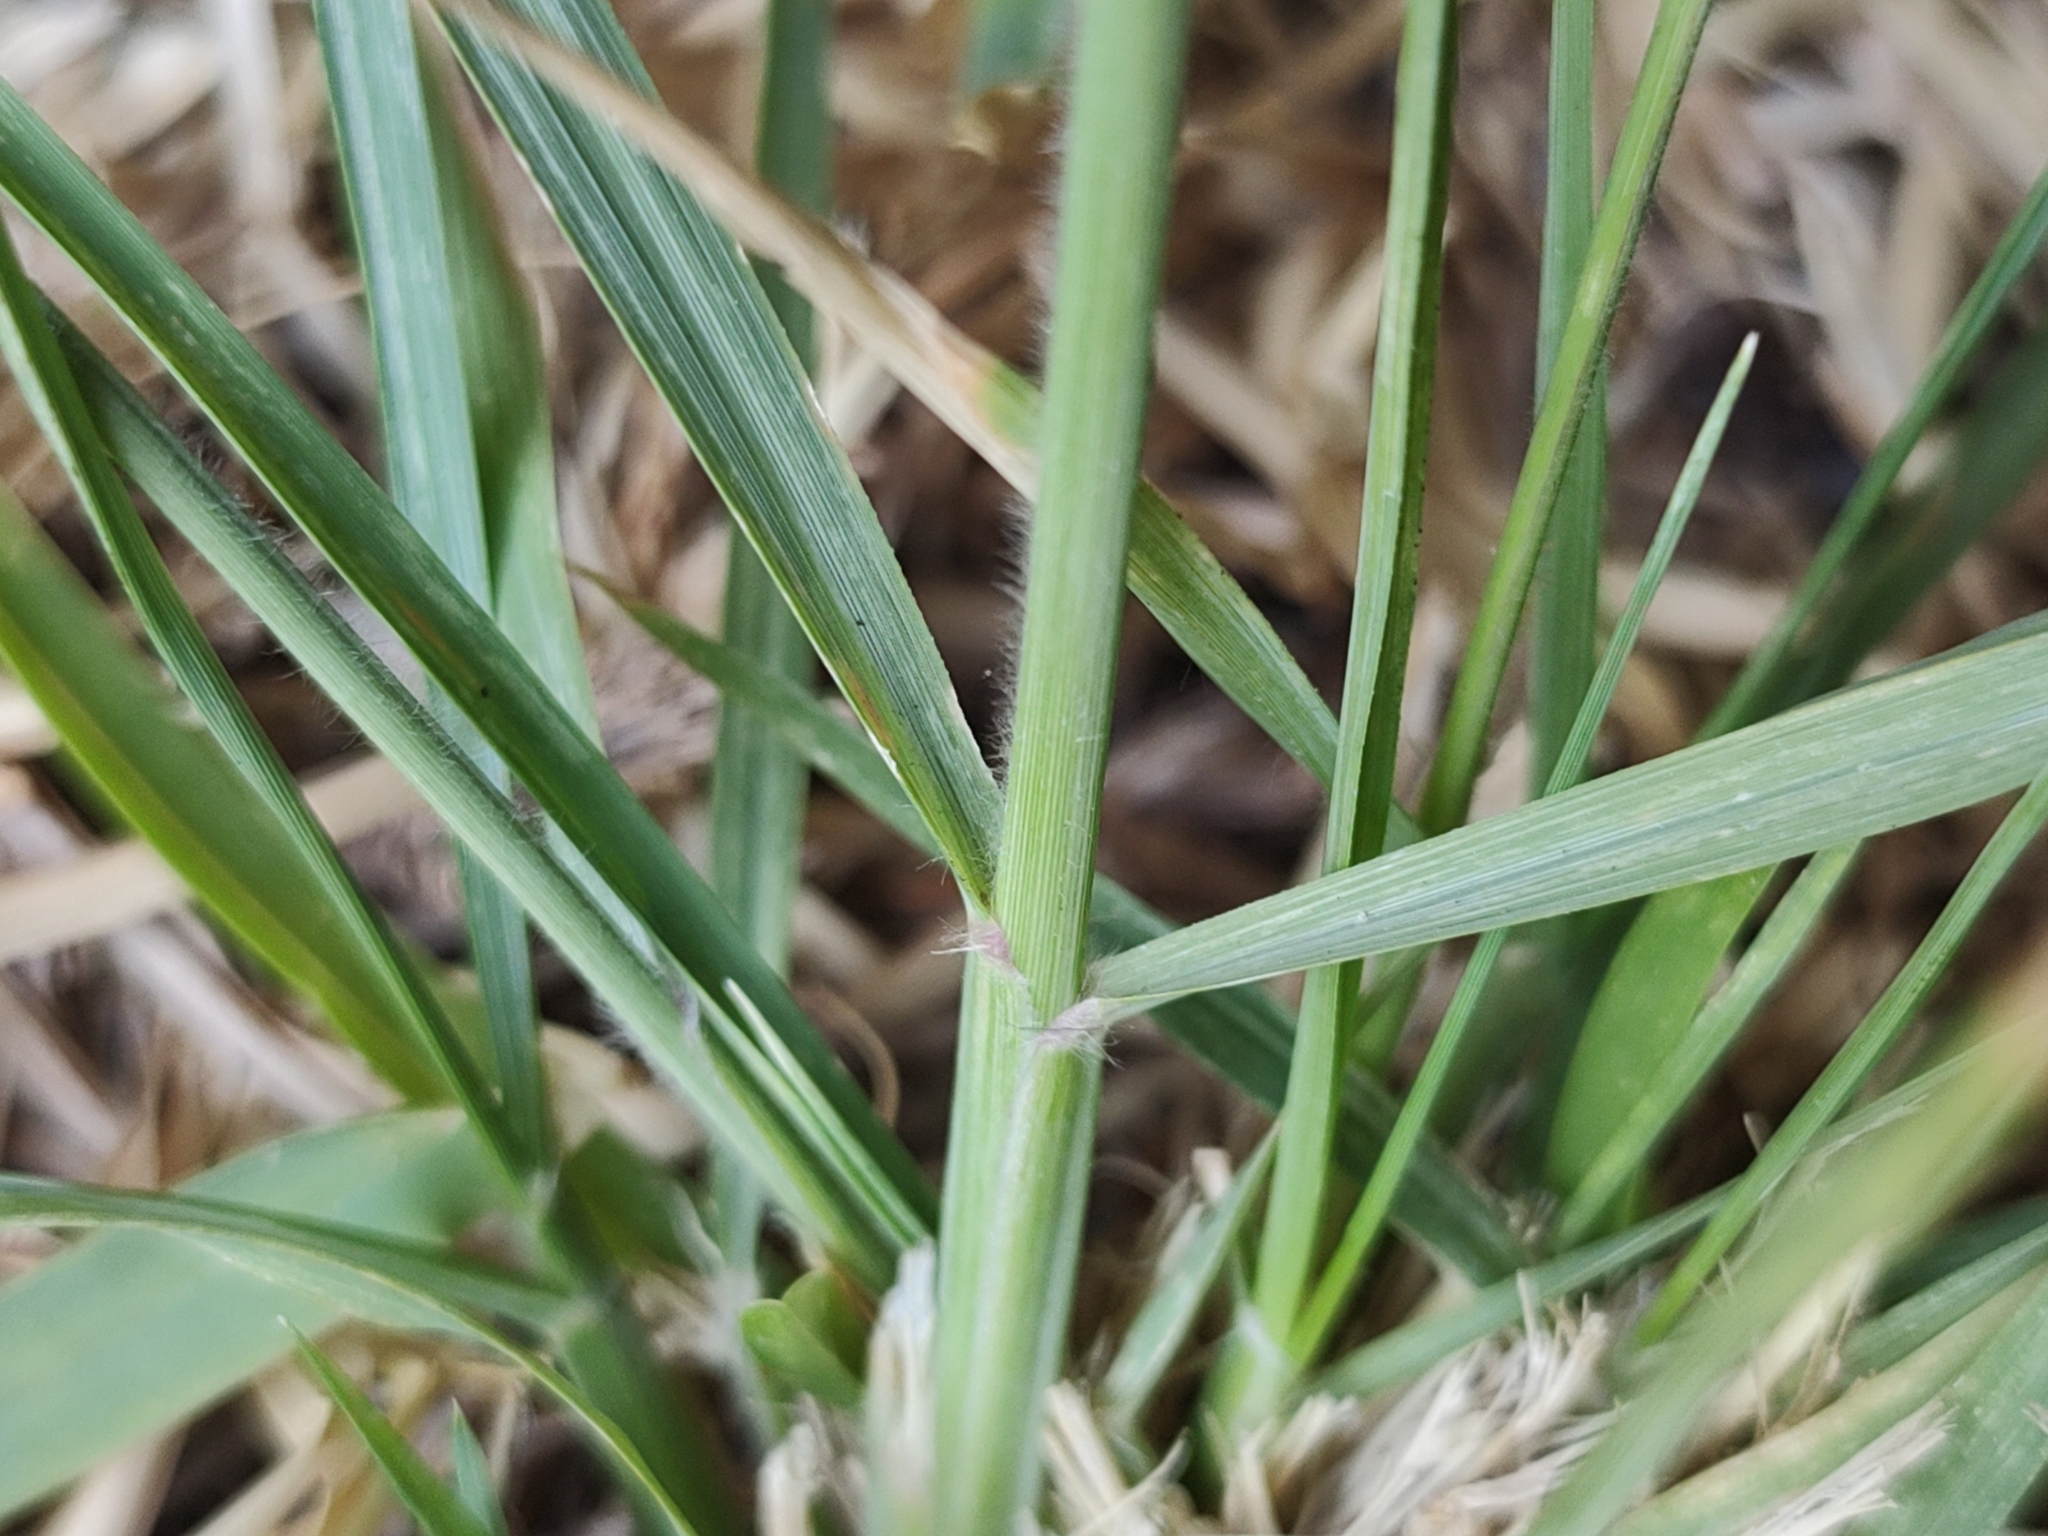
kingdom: Plantae
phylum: Tracheophyta
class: Liliopsida
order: Poales
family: Poaceae
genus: Eragrostis
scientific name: Eragrostis tenuifolia
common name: Elastic grass
